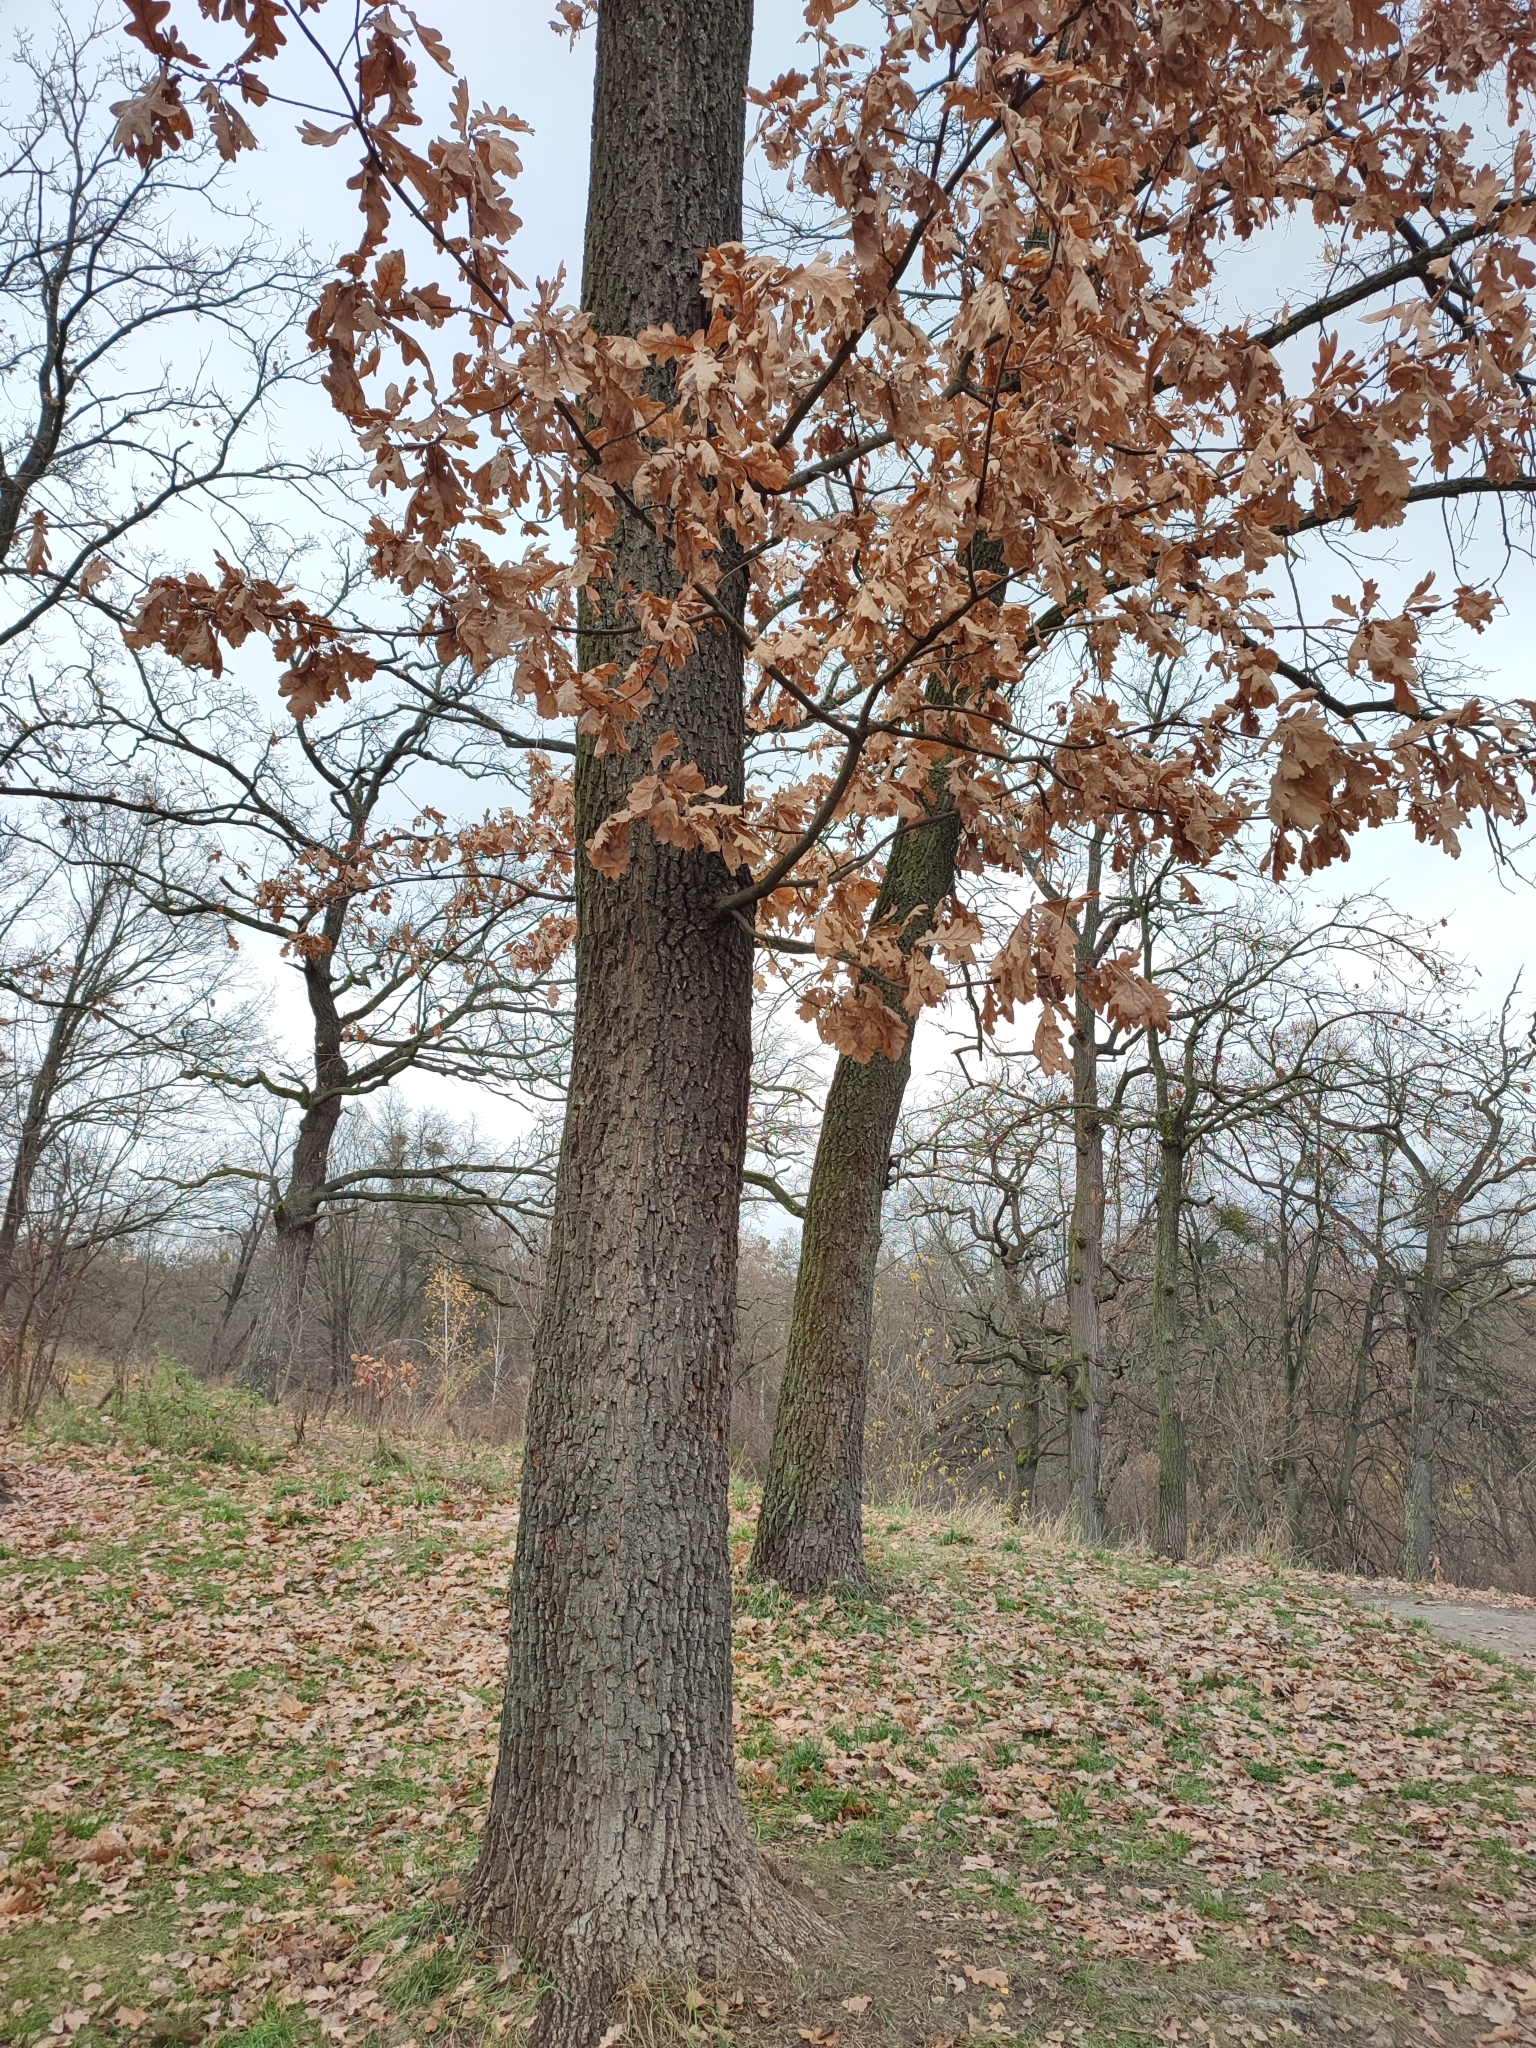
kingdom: Plantae
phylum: Tracheophyta
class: Magnoliopsida
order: Fagales
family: Fagaceae
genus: Quercus
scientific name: Quercus robur
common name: Pedunculate oak
